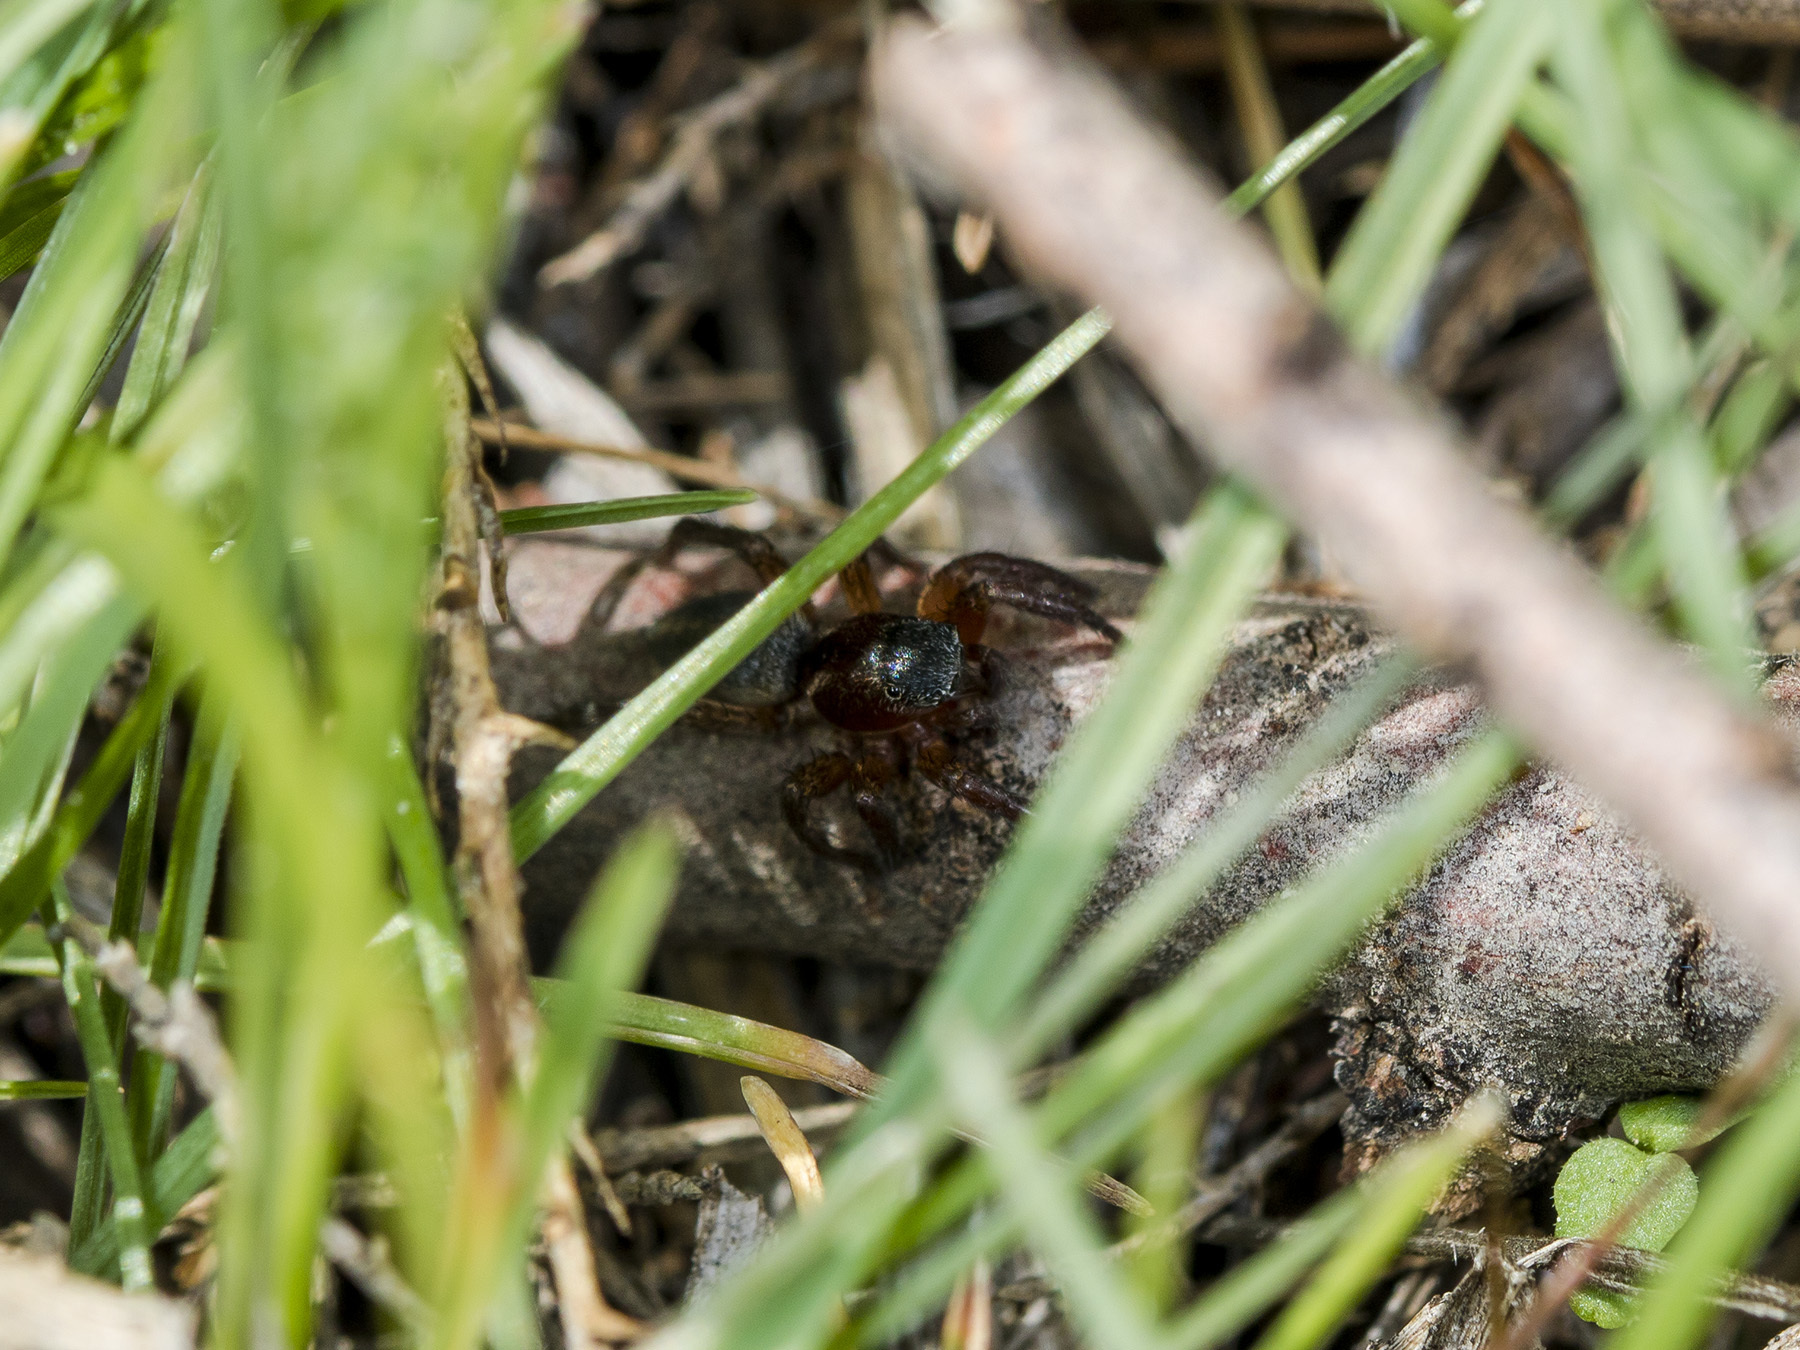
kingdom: Animalia
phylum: Arthropoda
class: Arachnida
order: Araneae
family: Salticidae
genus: Phlegra
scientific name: Phlegra fasciata
